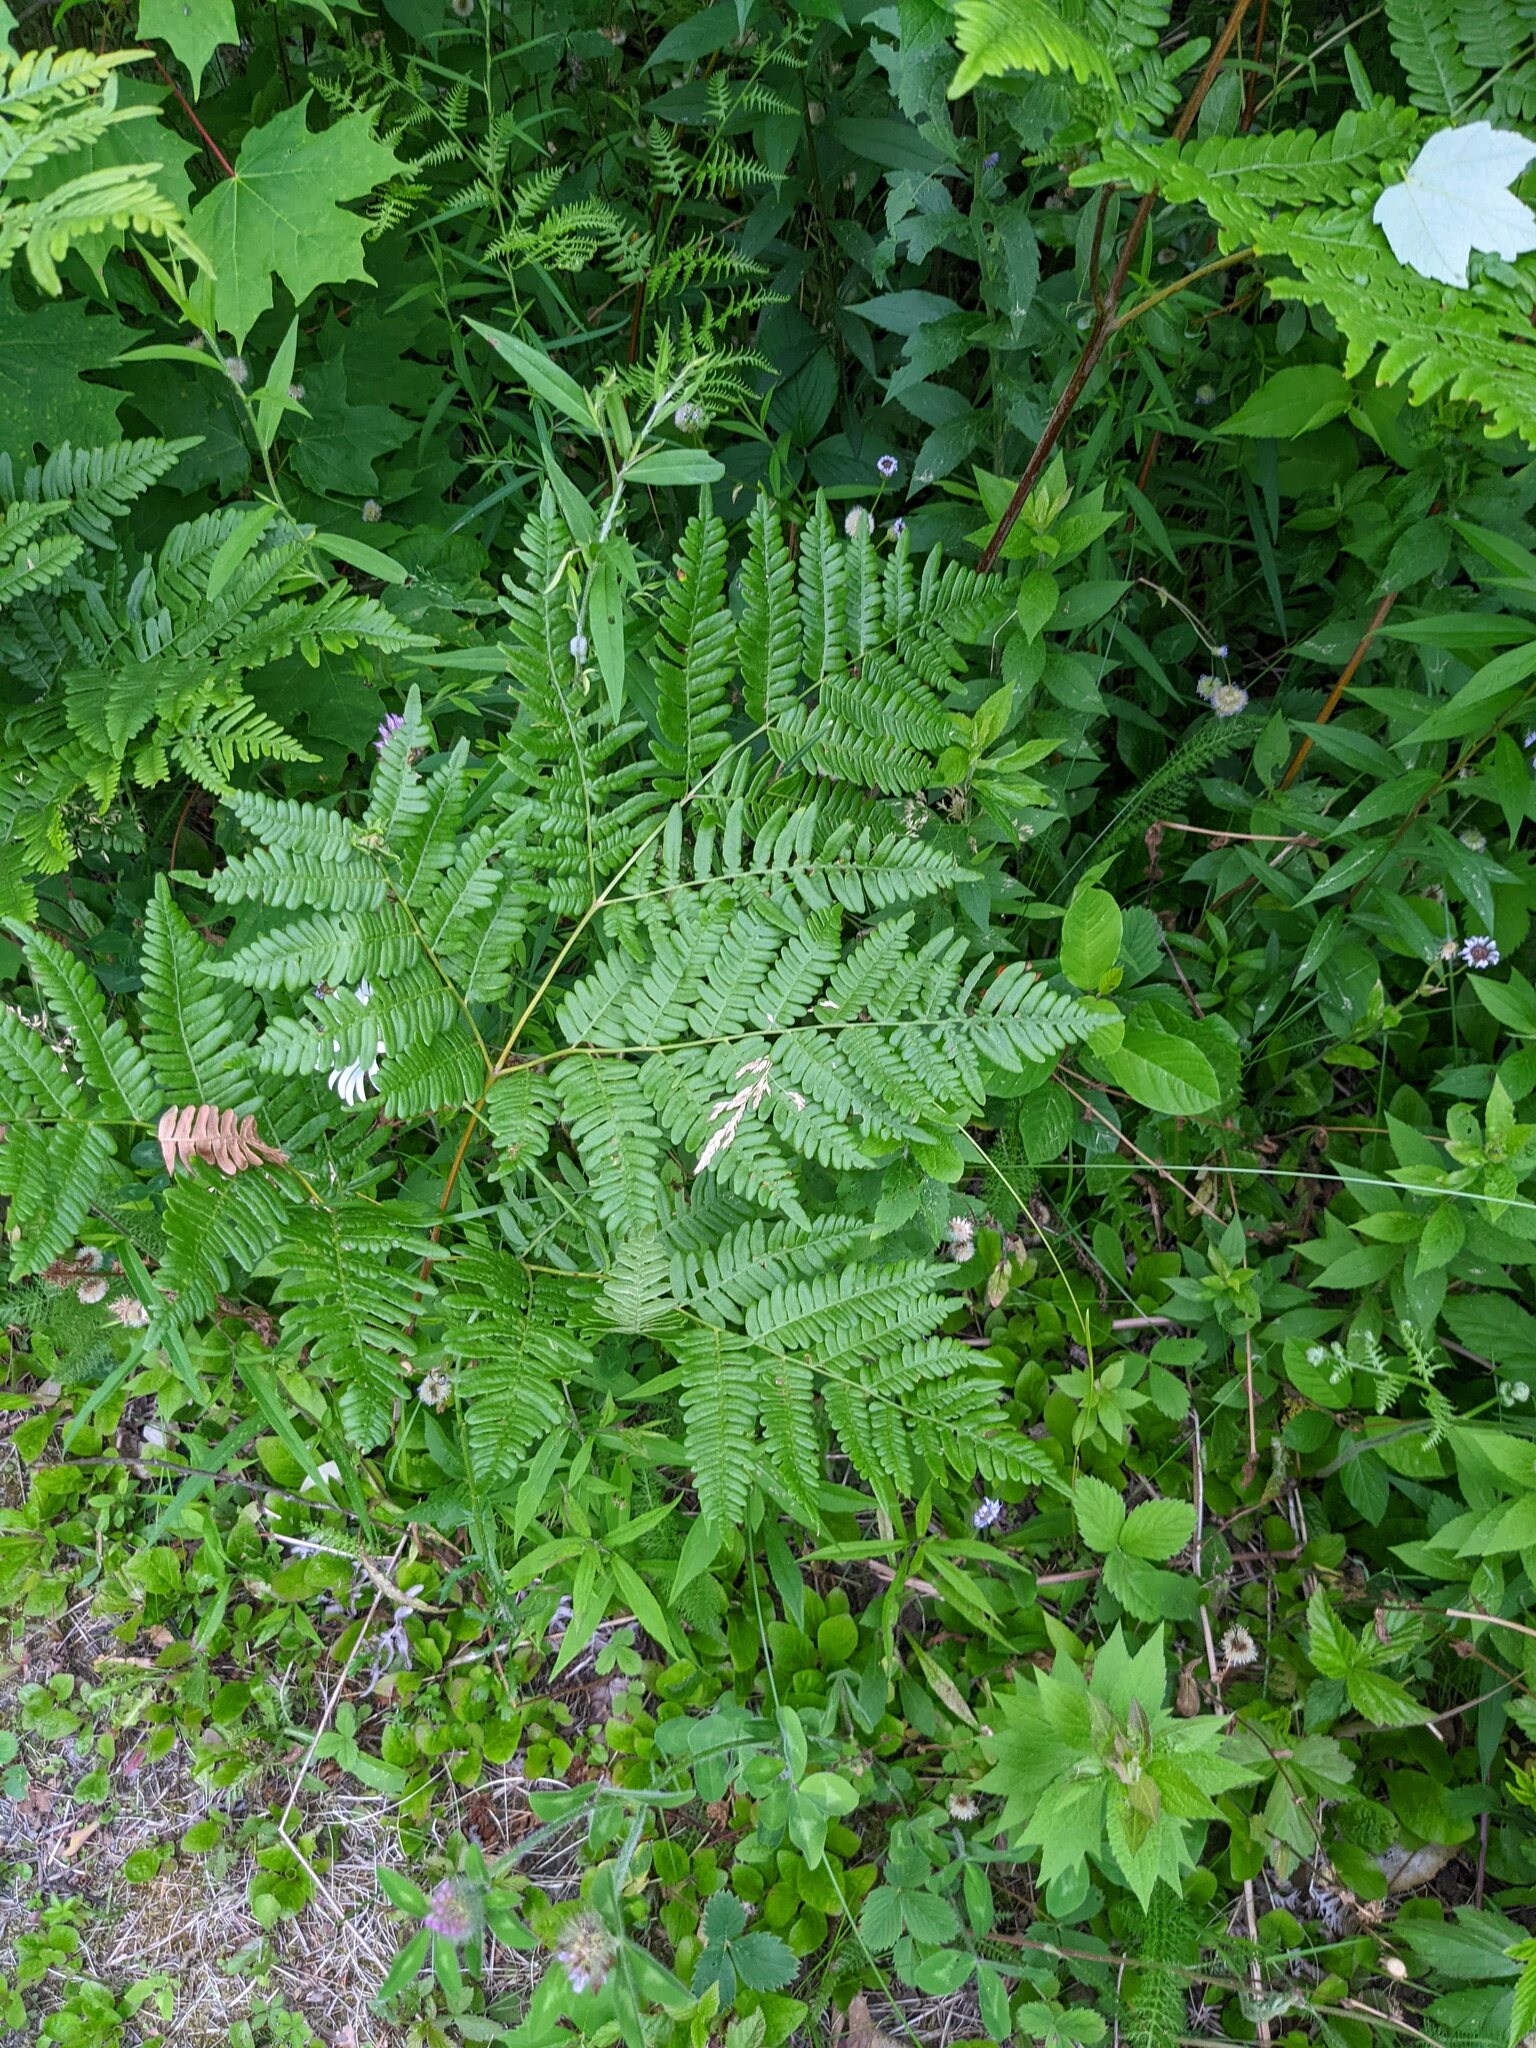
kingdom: Plantae
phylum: Tracheophyta
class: Polypodiopsida
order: Polypodiales
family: Dennstaedtiaceae
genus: Pteridium
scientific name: Pteridium aquilinum
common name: Bracken
